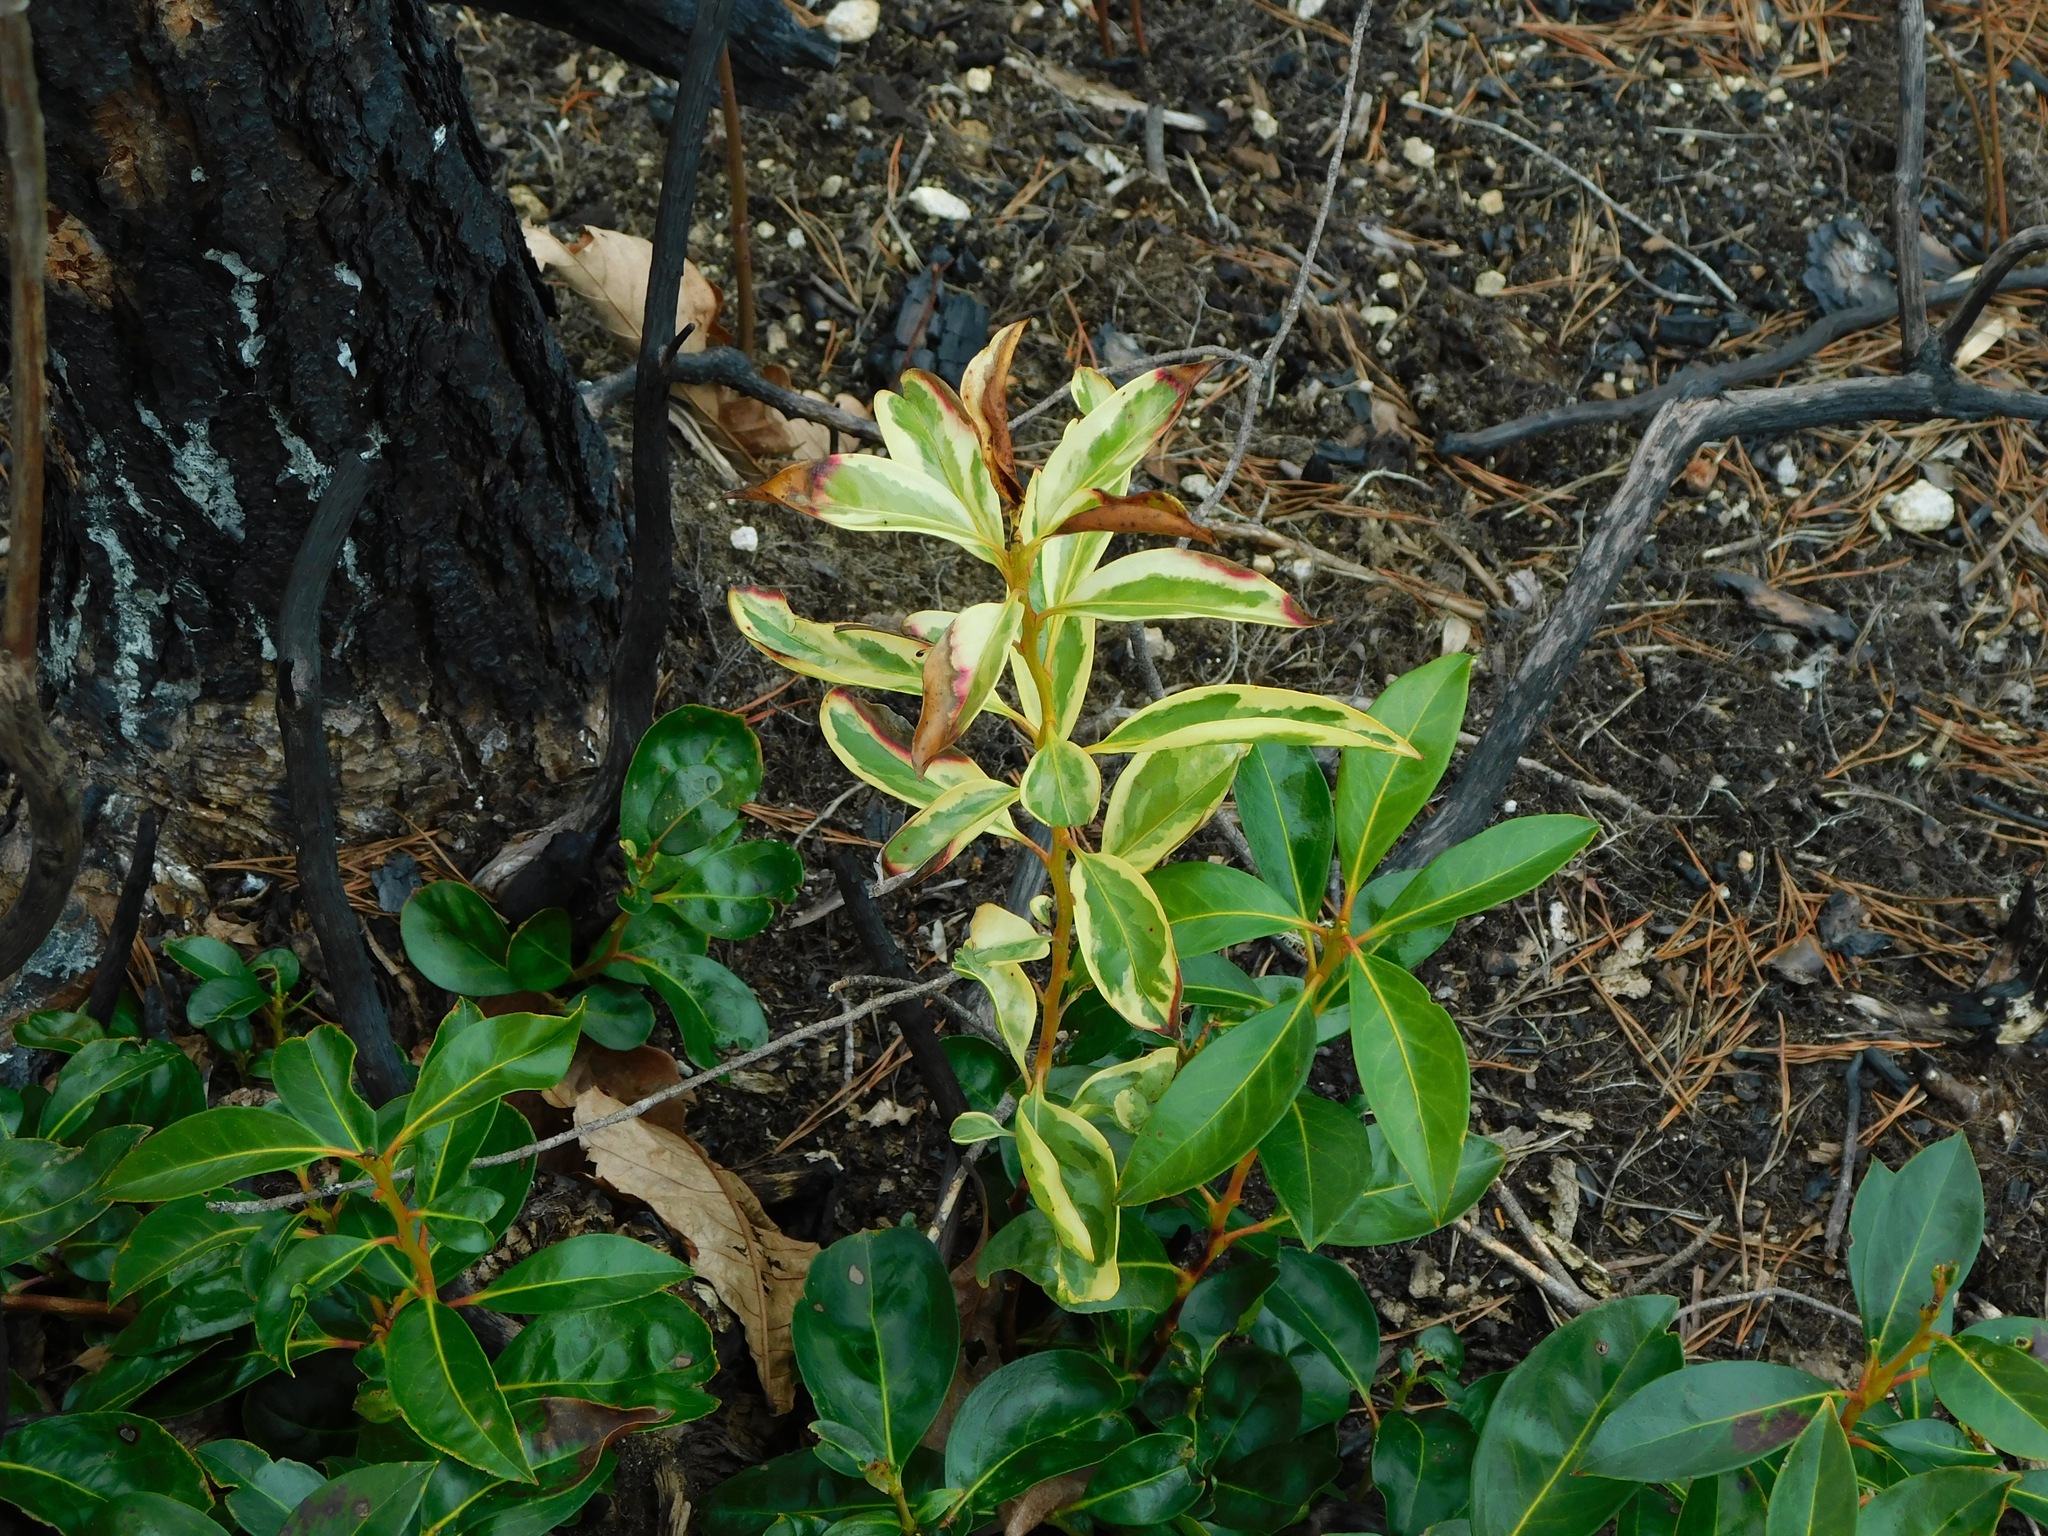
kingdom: Plantae
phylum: Tracheophyta
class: Magnoliopsida
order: Ericales
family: Ericaceae
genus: Kalmia
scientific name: Kalmia latifolia
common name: Mountain-laurel
